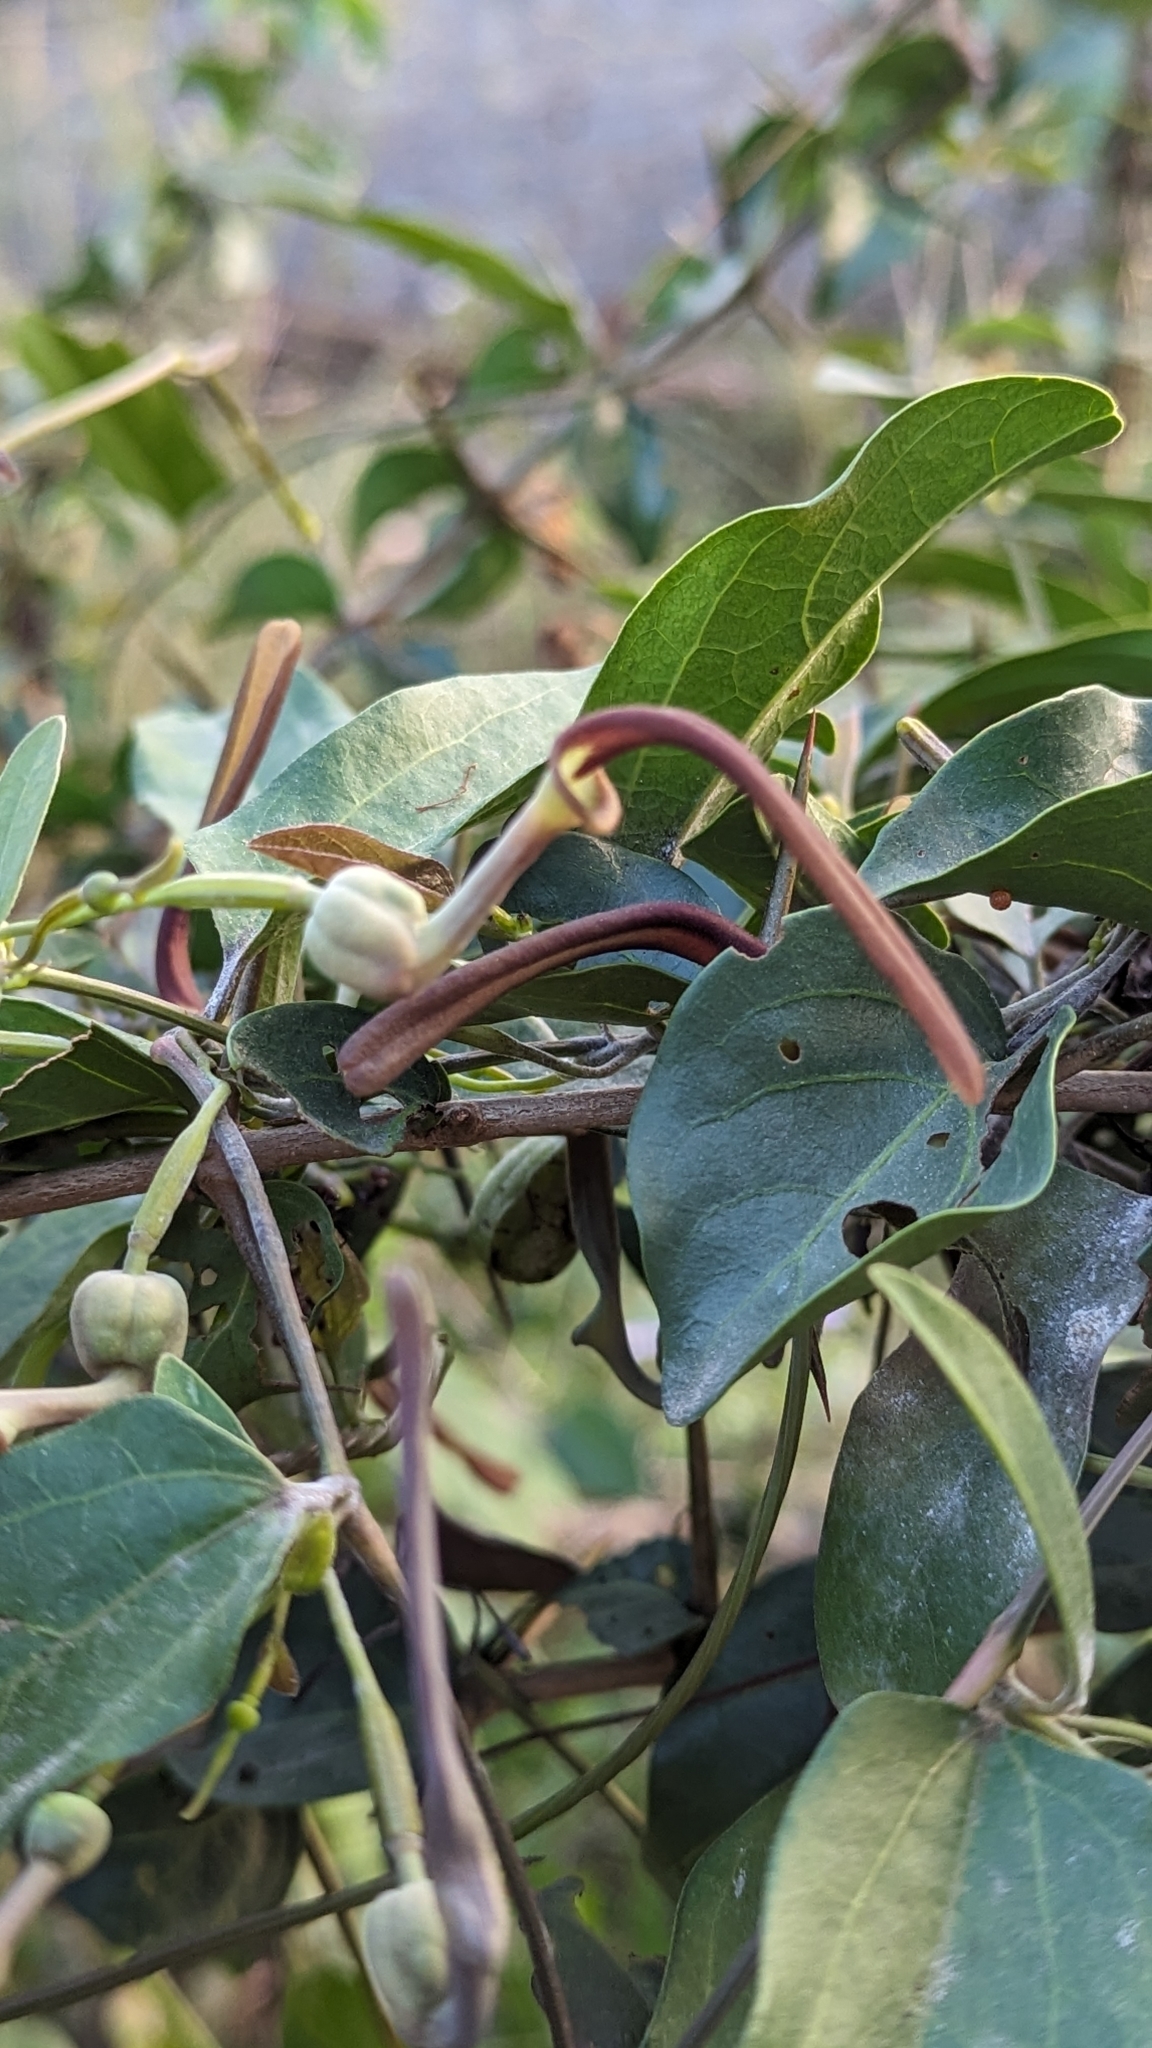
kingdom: Plantae
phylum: Tracheophyta
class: Magnoliopsida
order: Piperales
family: Aristolochiaceae
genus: Aristolochia
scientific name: Aristolochia indica
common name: Indian birthwort
